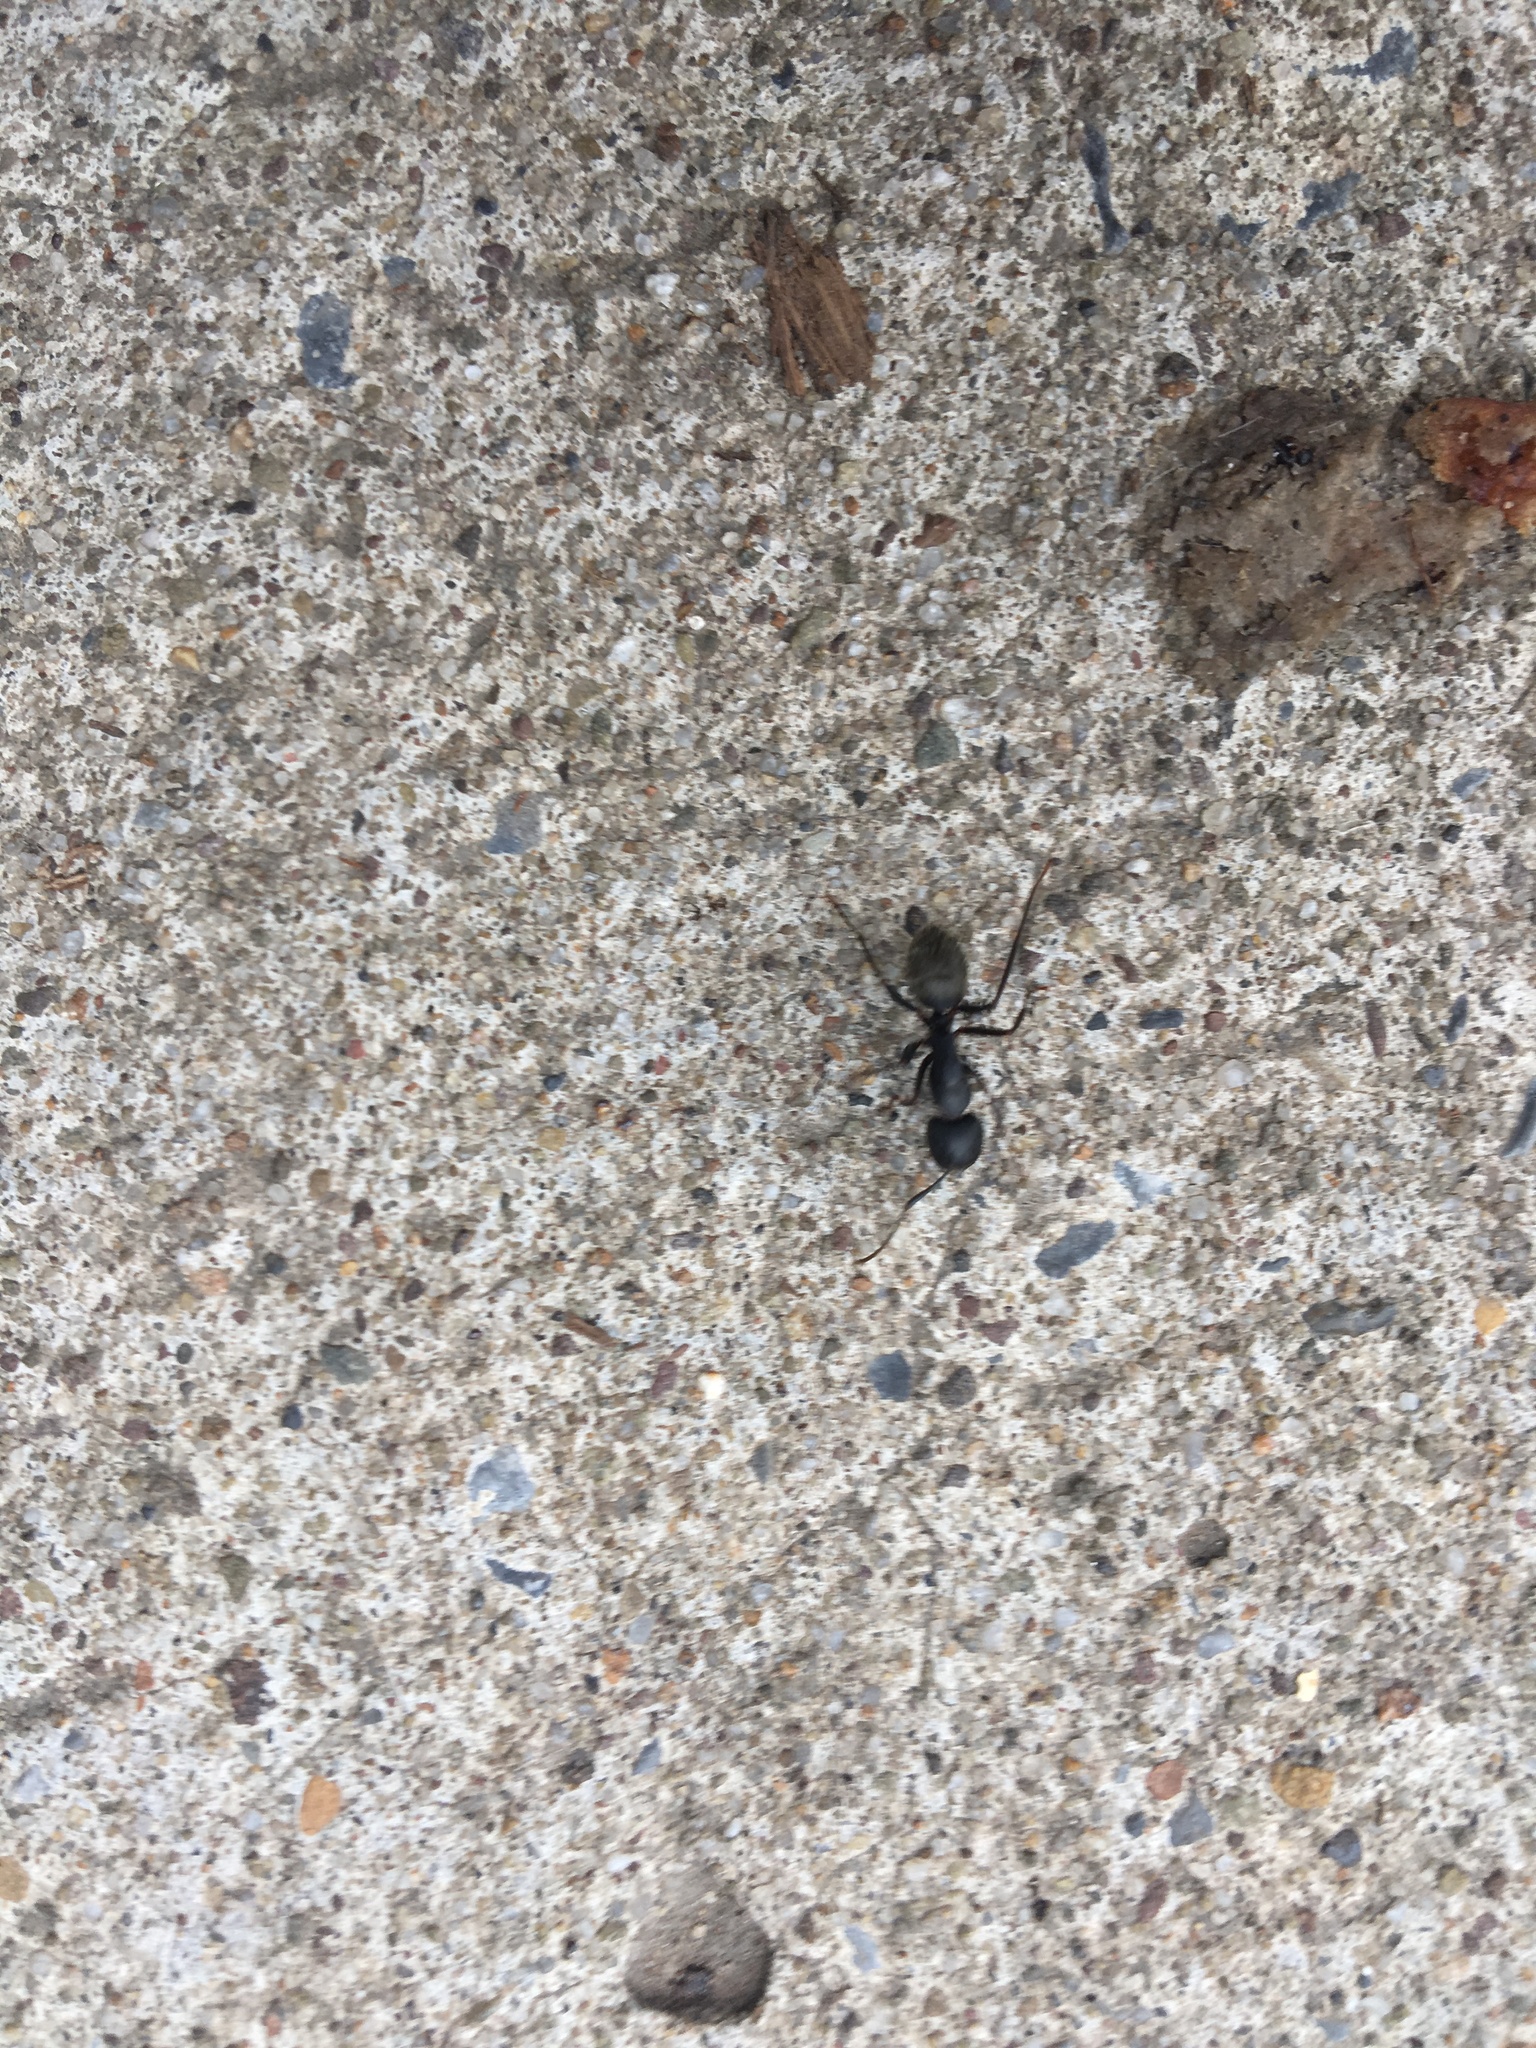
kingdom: Animalia
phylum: Arthropoda
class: Insecta
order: Hymenoptera
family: Formicidae
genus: Camponotus
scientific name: Camponotus pennsylvanicus
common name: Black carpenter ant
